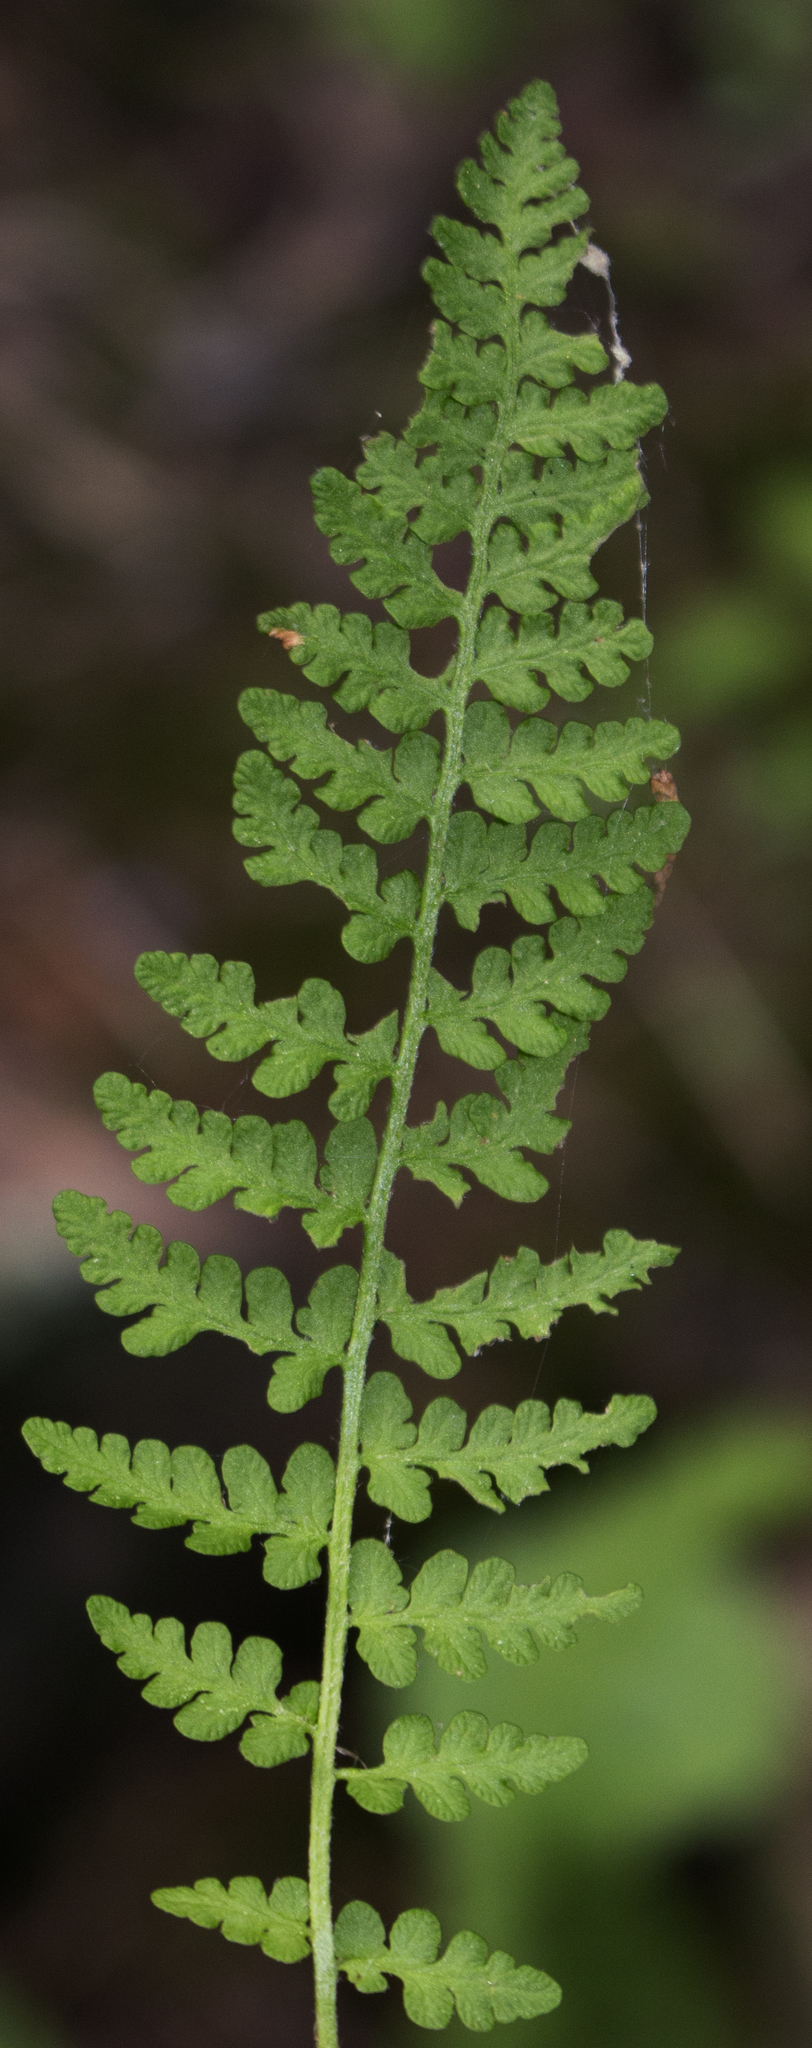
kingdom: Plantae
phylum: Tracheophyta
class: Polypodiopsida
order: Polypodiales
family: Woodsiaceae
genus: Woodsia
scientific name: Woodsia ilvensis
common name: Fragrant woodsia
